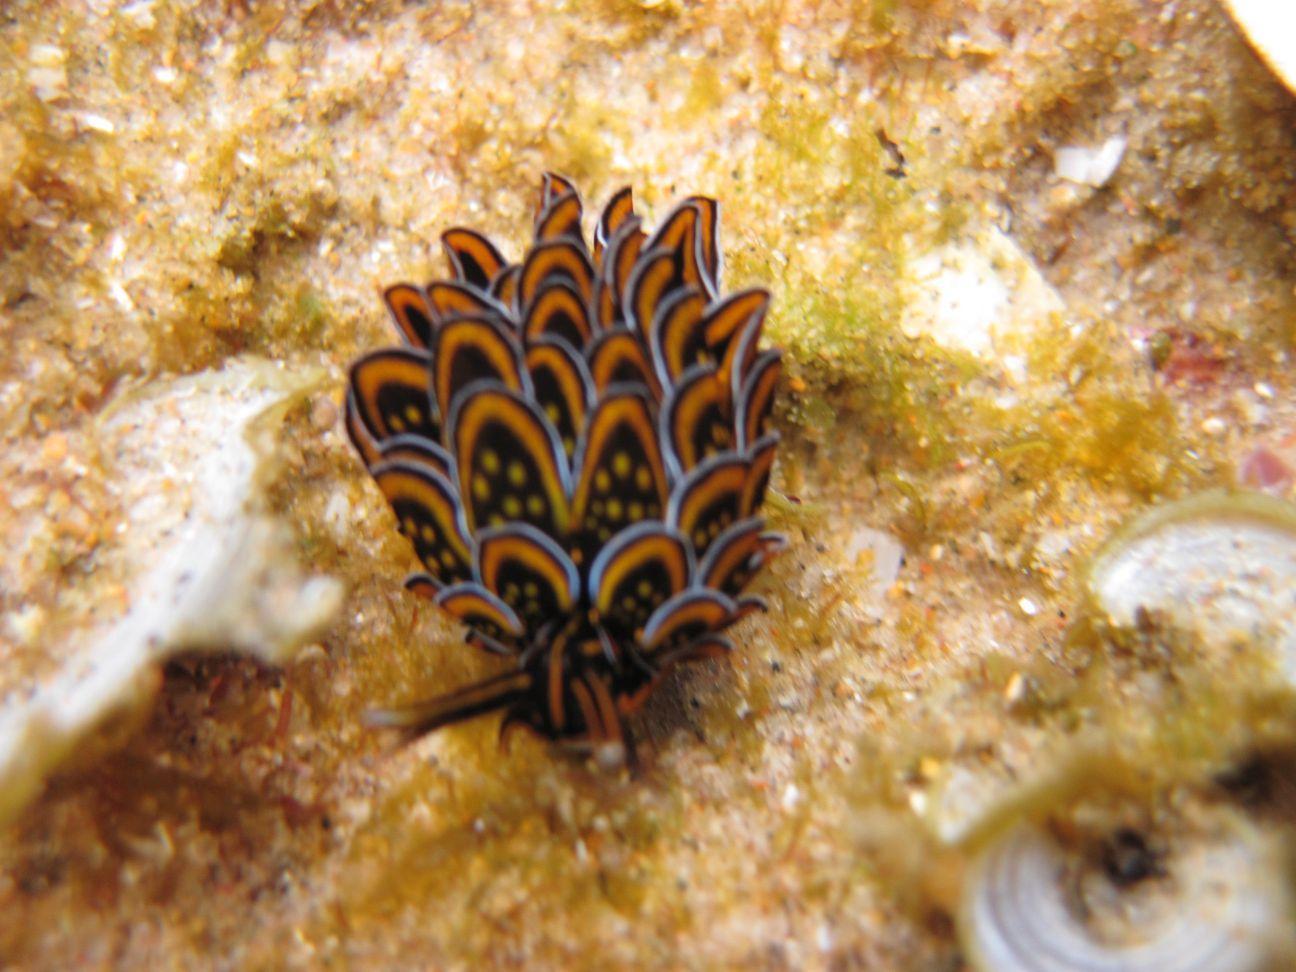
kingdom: Animalia
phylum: Mollusca
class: Gastropoda
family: Hermaeidae
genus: Cyerce
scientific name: Cyerce nigricans
